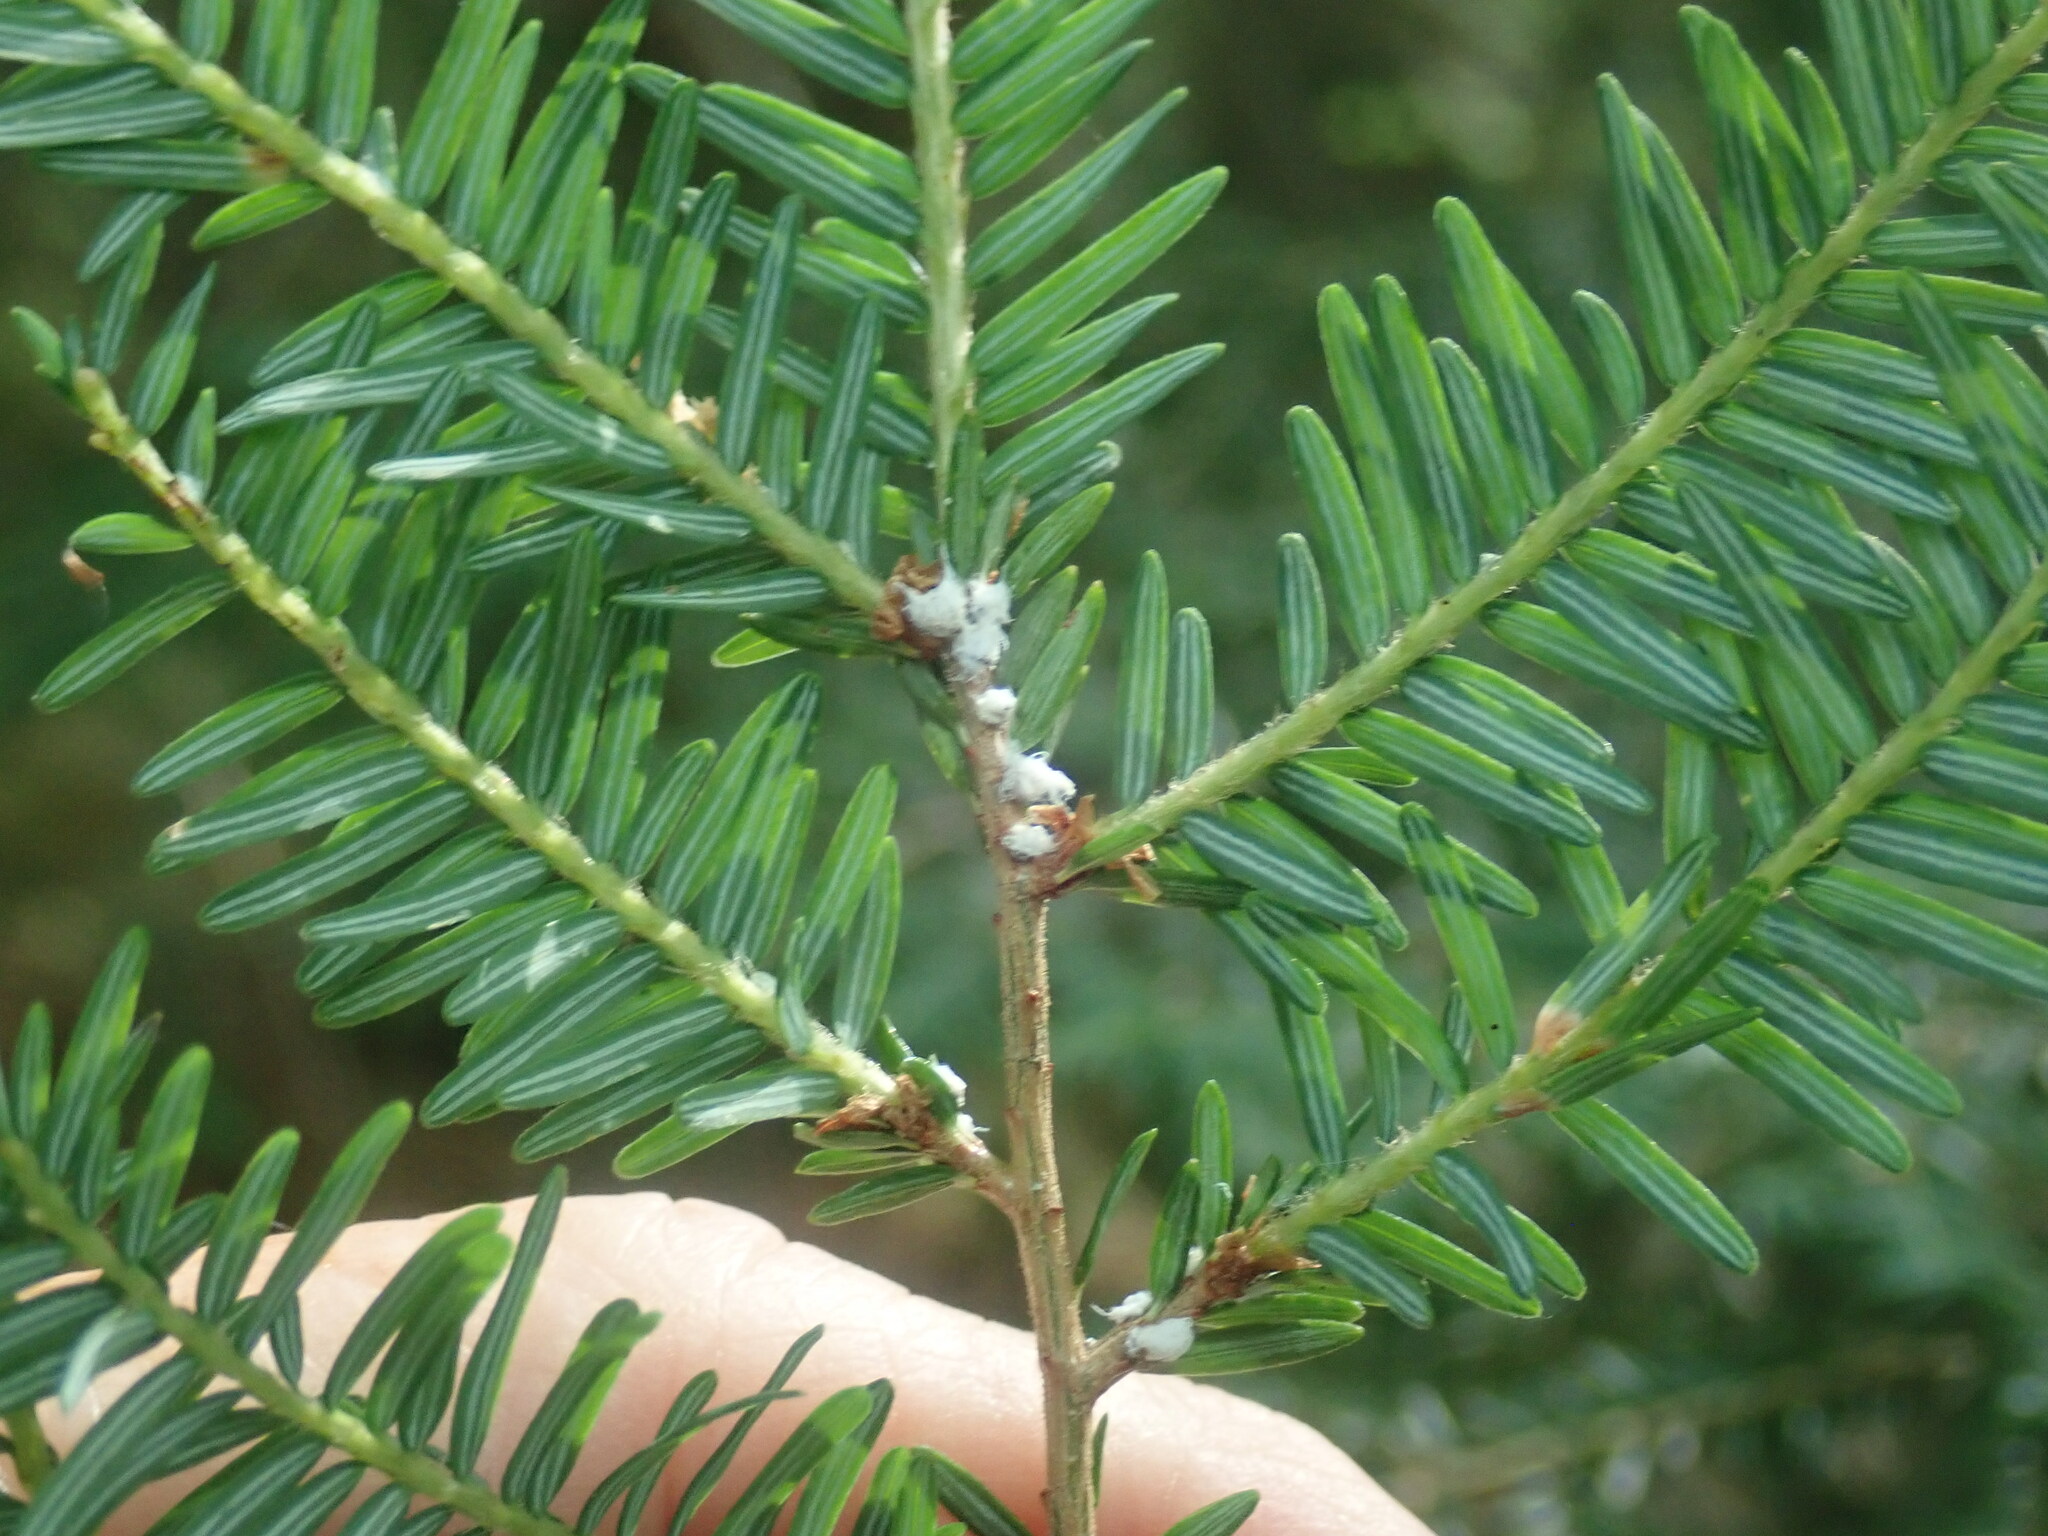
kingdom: Animalia
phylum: Arthropoda
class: Insecta
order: Hemiptera
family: Adelgidae
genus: Adelges
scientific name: Adelges tsugae
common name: Hemlock woolly adelgid
